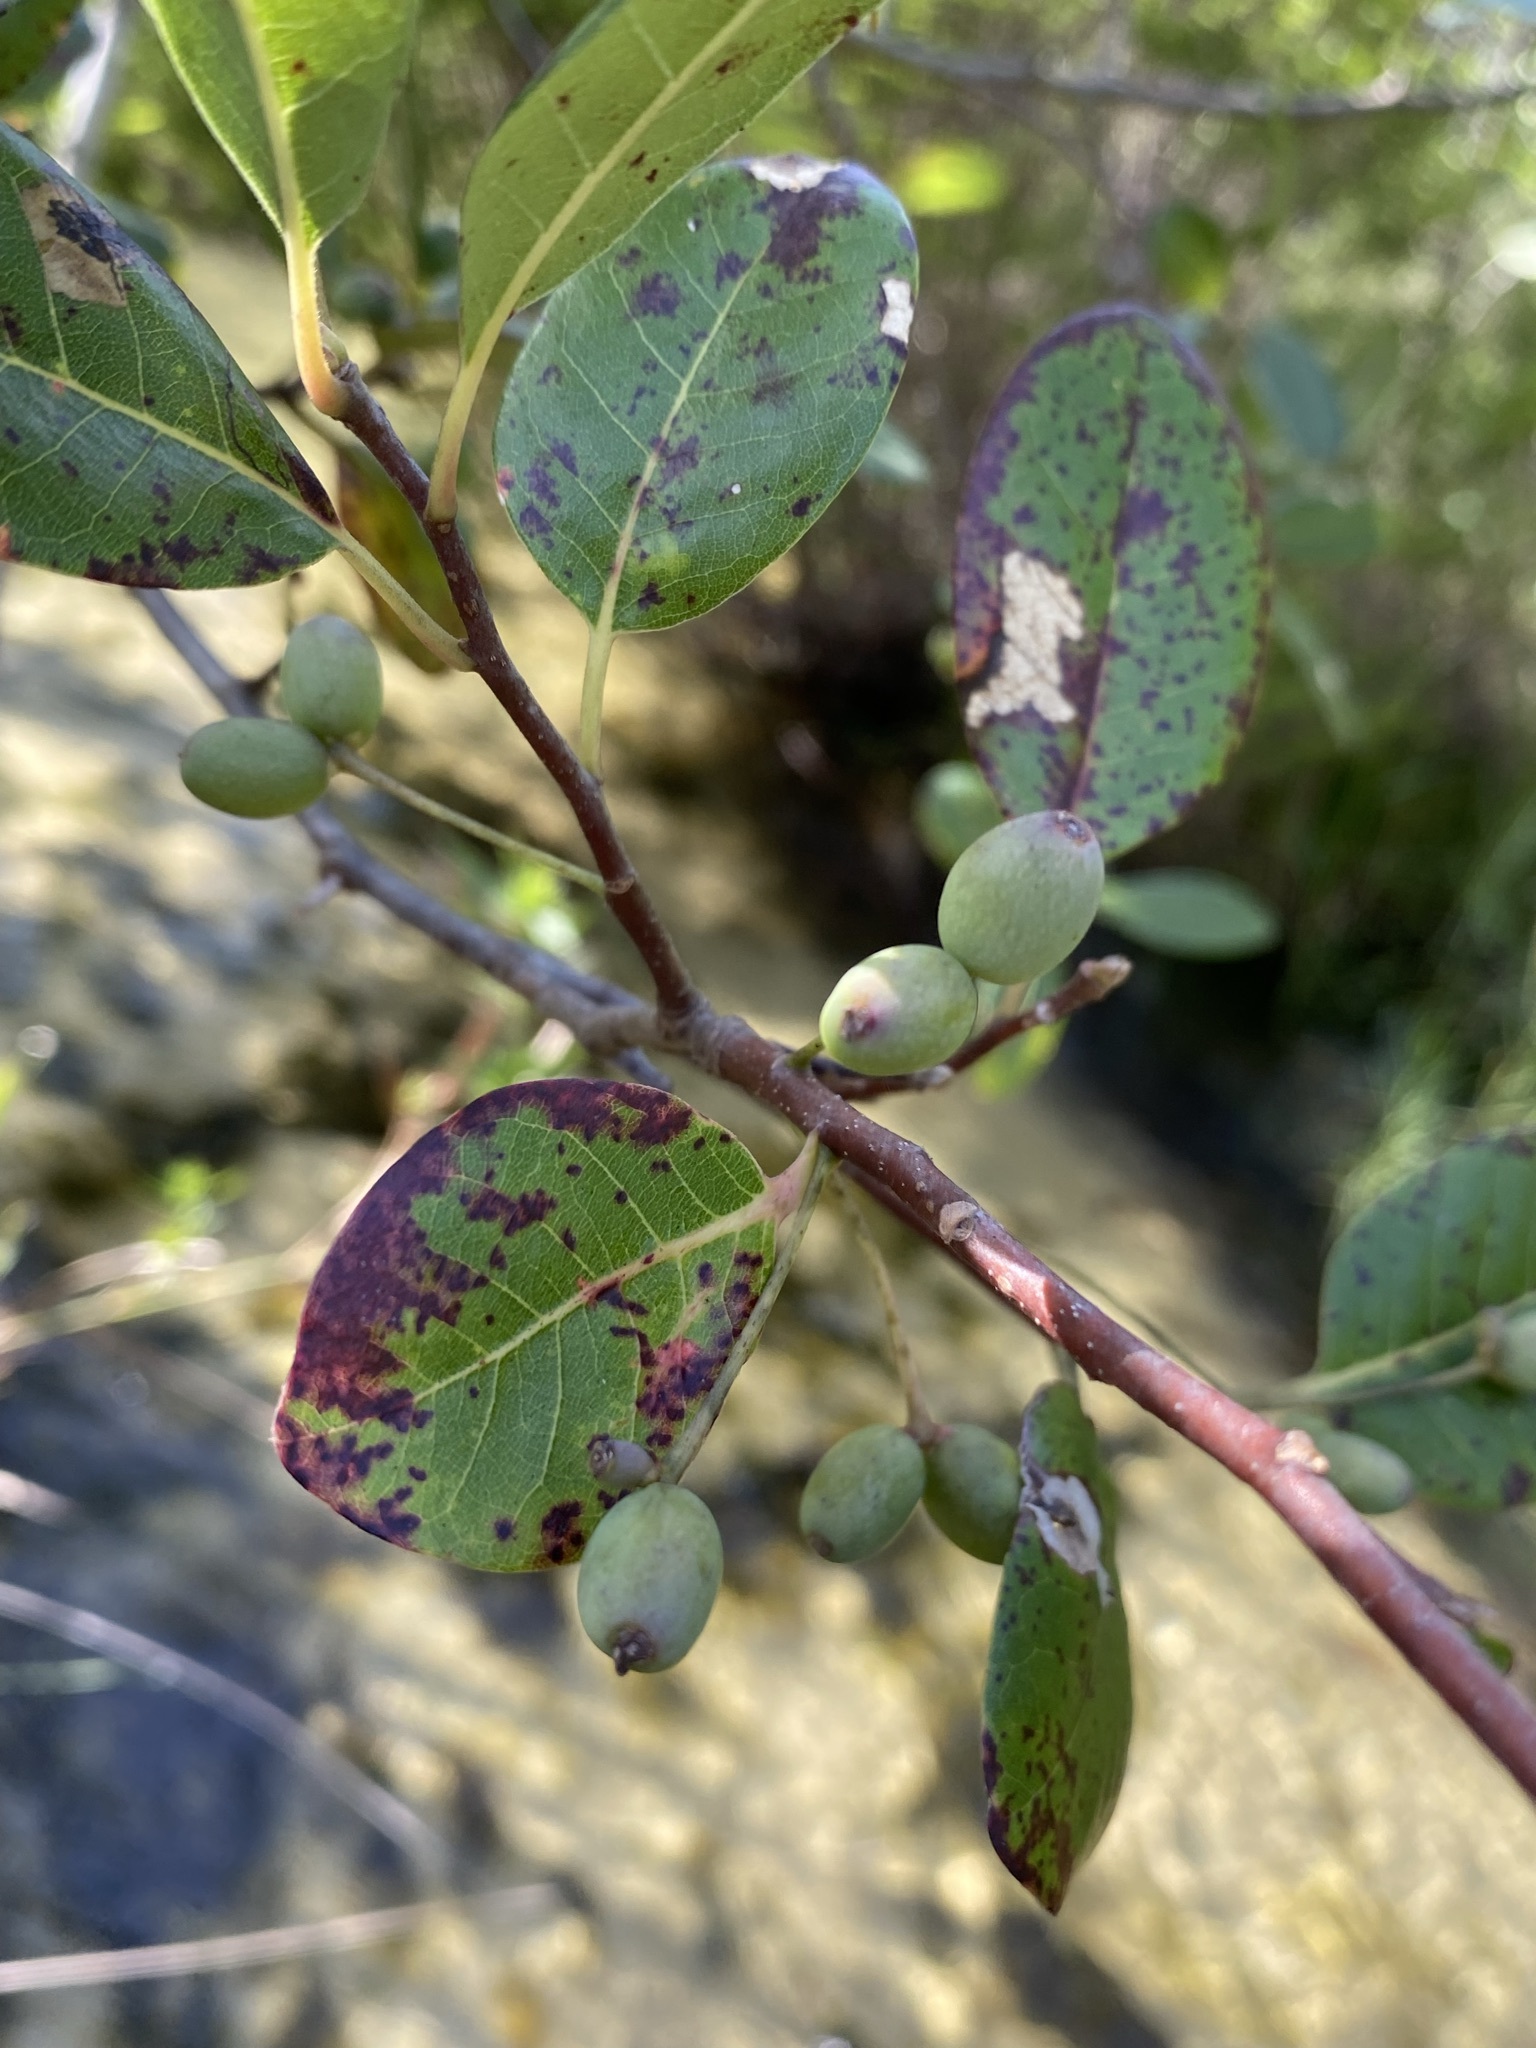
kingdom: Plantae
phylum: Tracheophyta
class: Magnoliopsida
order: Cornales
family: Nyssaceae
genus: Nyssa
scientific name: Nyssa biflora
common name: Swamp blackgum
